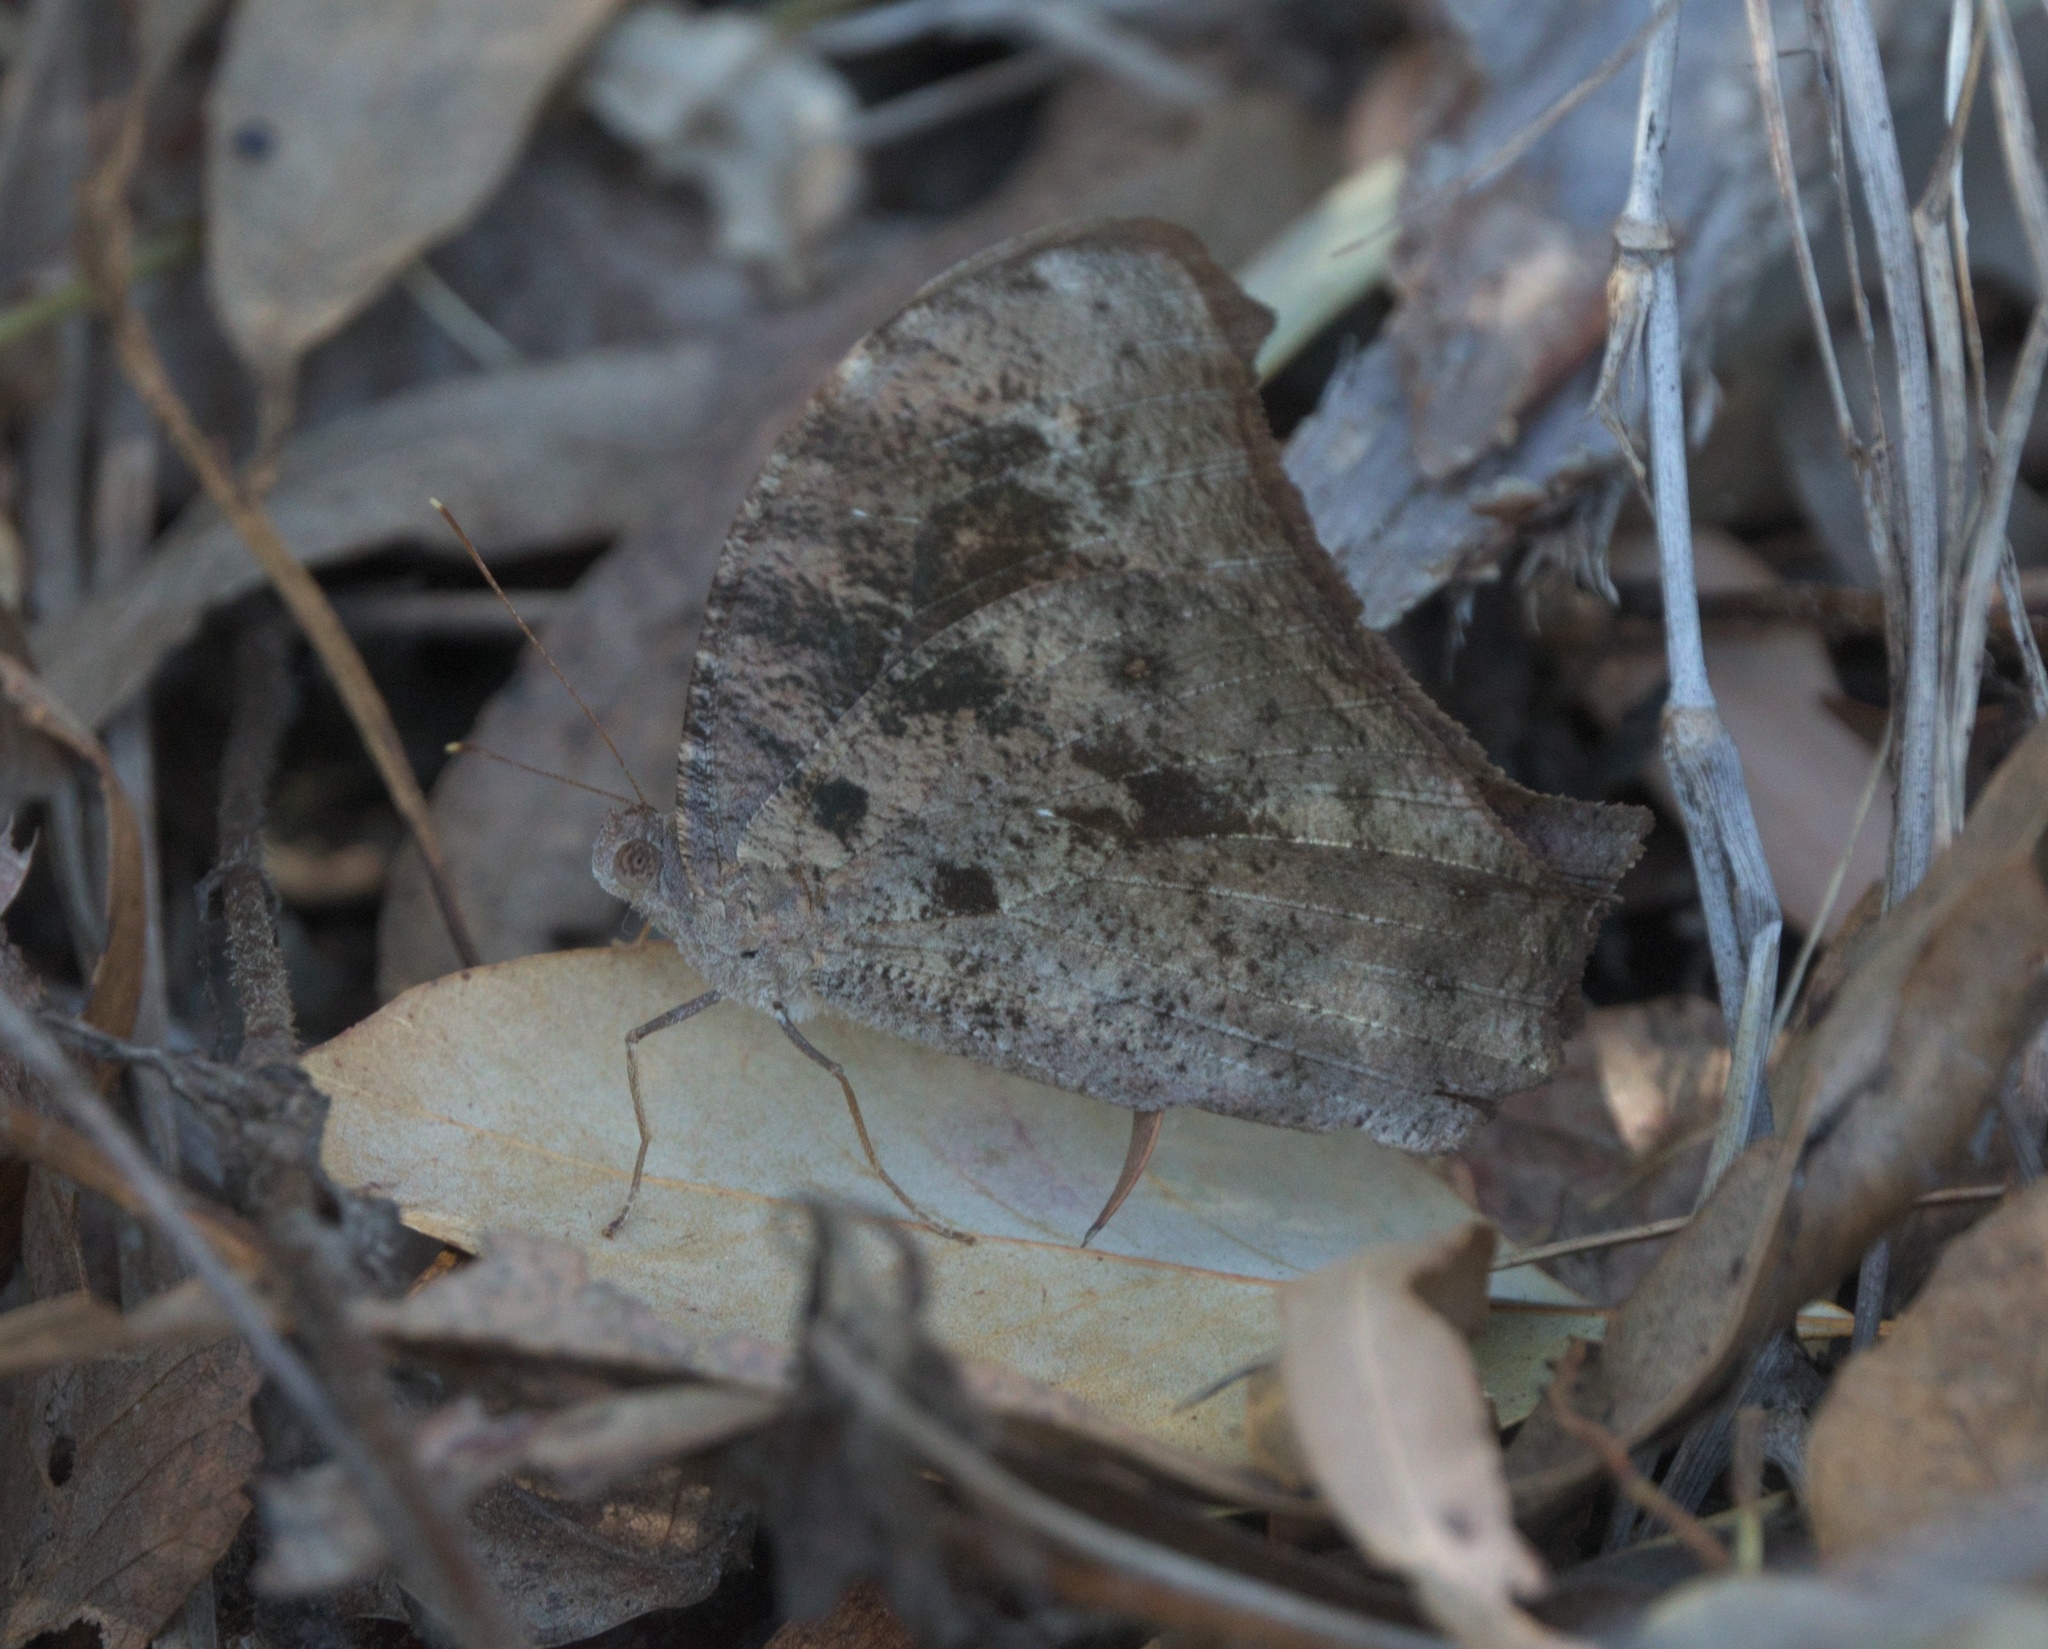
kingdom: Animalia
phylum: Arthropoda
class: Insecta
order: Lepidoptera
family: Nymphalidae
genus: Melanitis
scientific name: Melanitis leda
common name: Twilight brown
